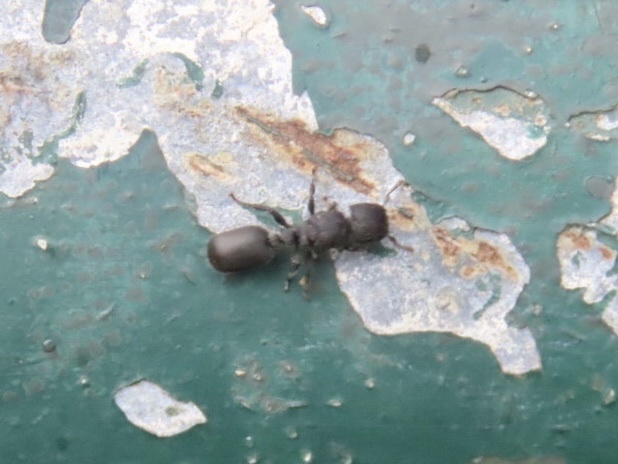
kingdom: Animalia
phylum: Arthropoda
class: Insecta
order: Hymenoptera
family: Formicidae
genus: Cataulacus
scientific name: Cataulacus granulatus
